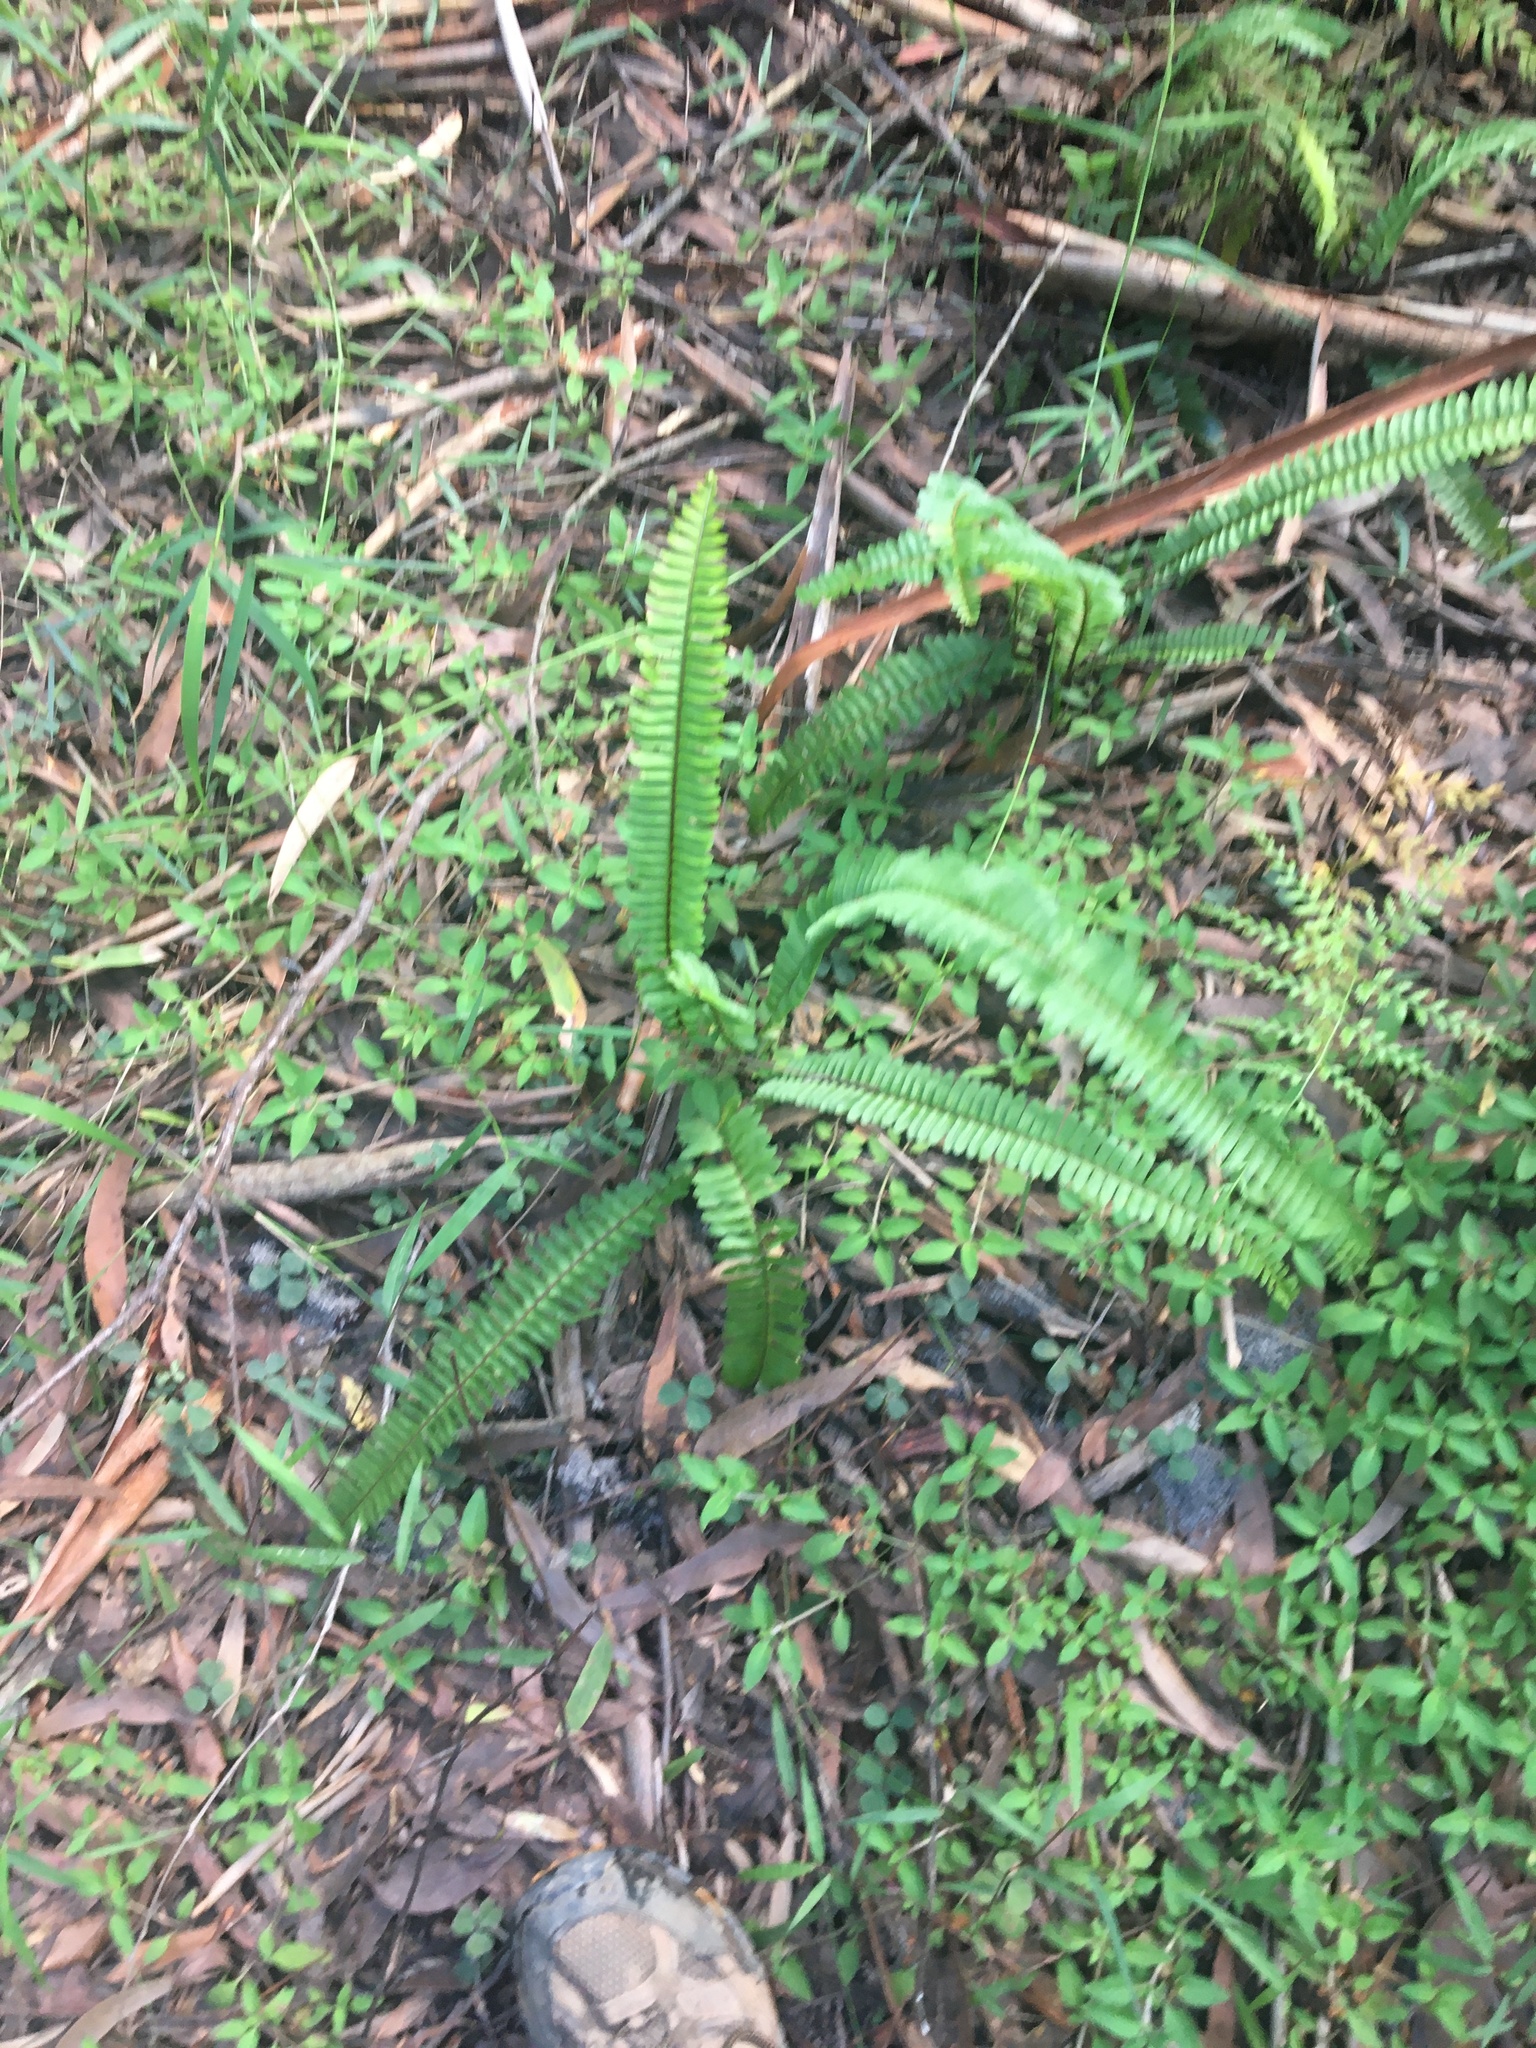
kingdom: Plantae
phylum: Tracheophyta
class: Polypodiopsida
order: Polypodiales
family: Nephrolepidaceae
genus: Nephrolepis
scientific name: Nephrolepis cordifolia
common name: Narrow swordfern
